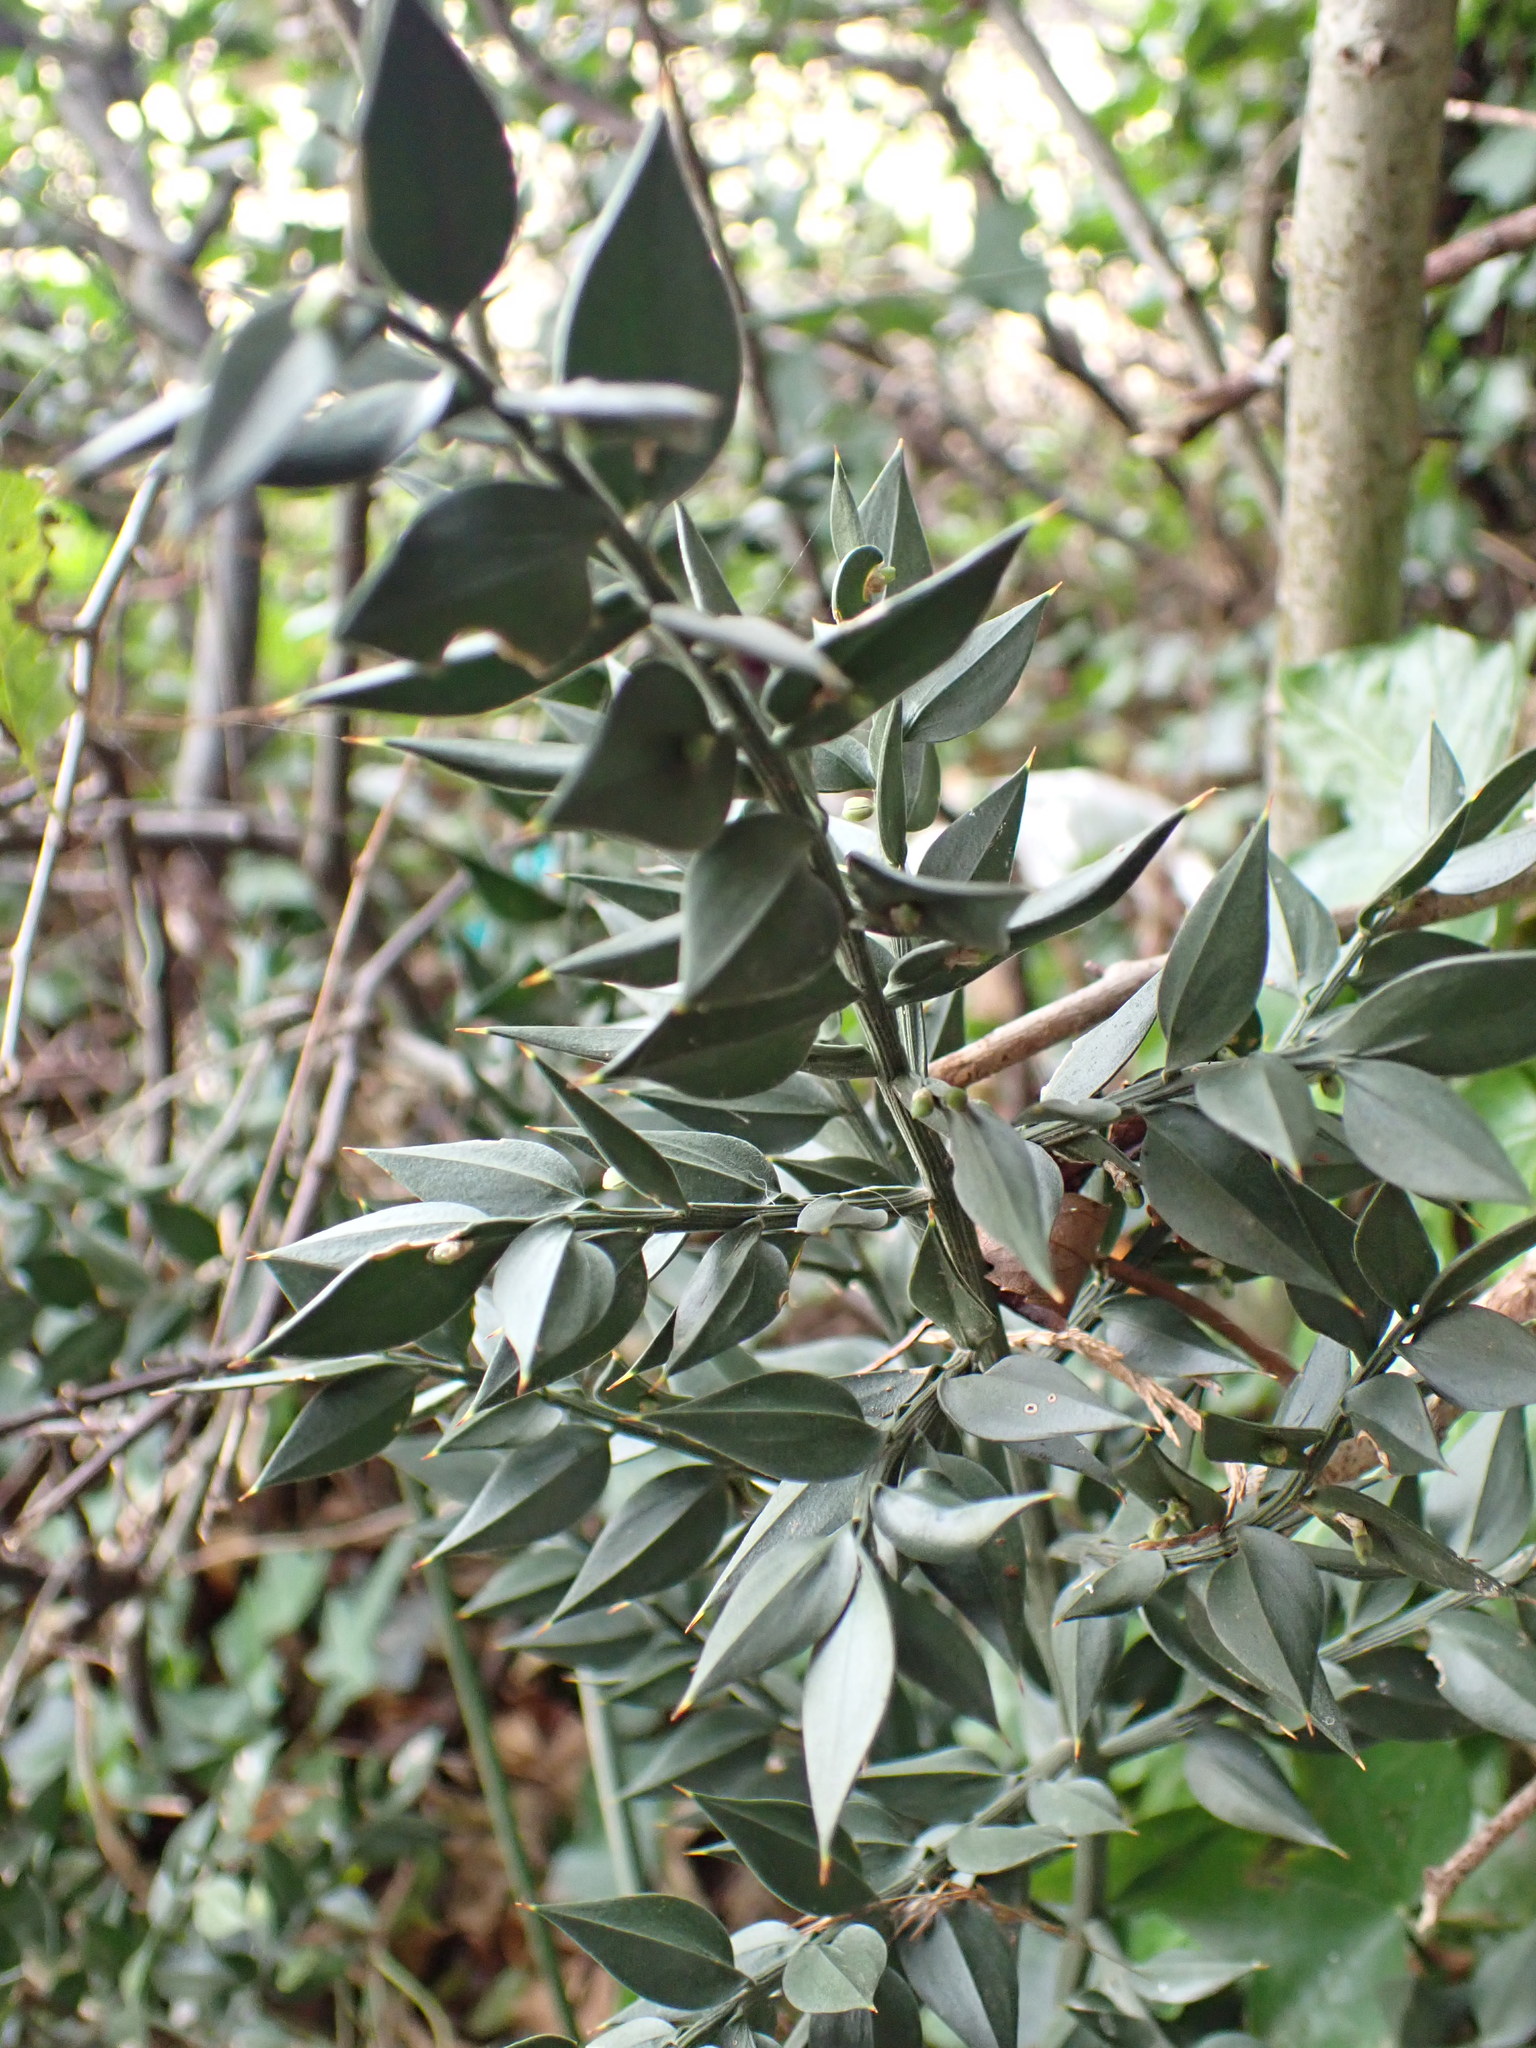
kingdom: Plantae
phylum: Tracheophyta
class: Liliopsida
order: Asparagales
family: Asparagaceae
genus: Ruscus
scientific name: Ruscus aculeatus
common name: Butcher's-broom
